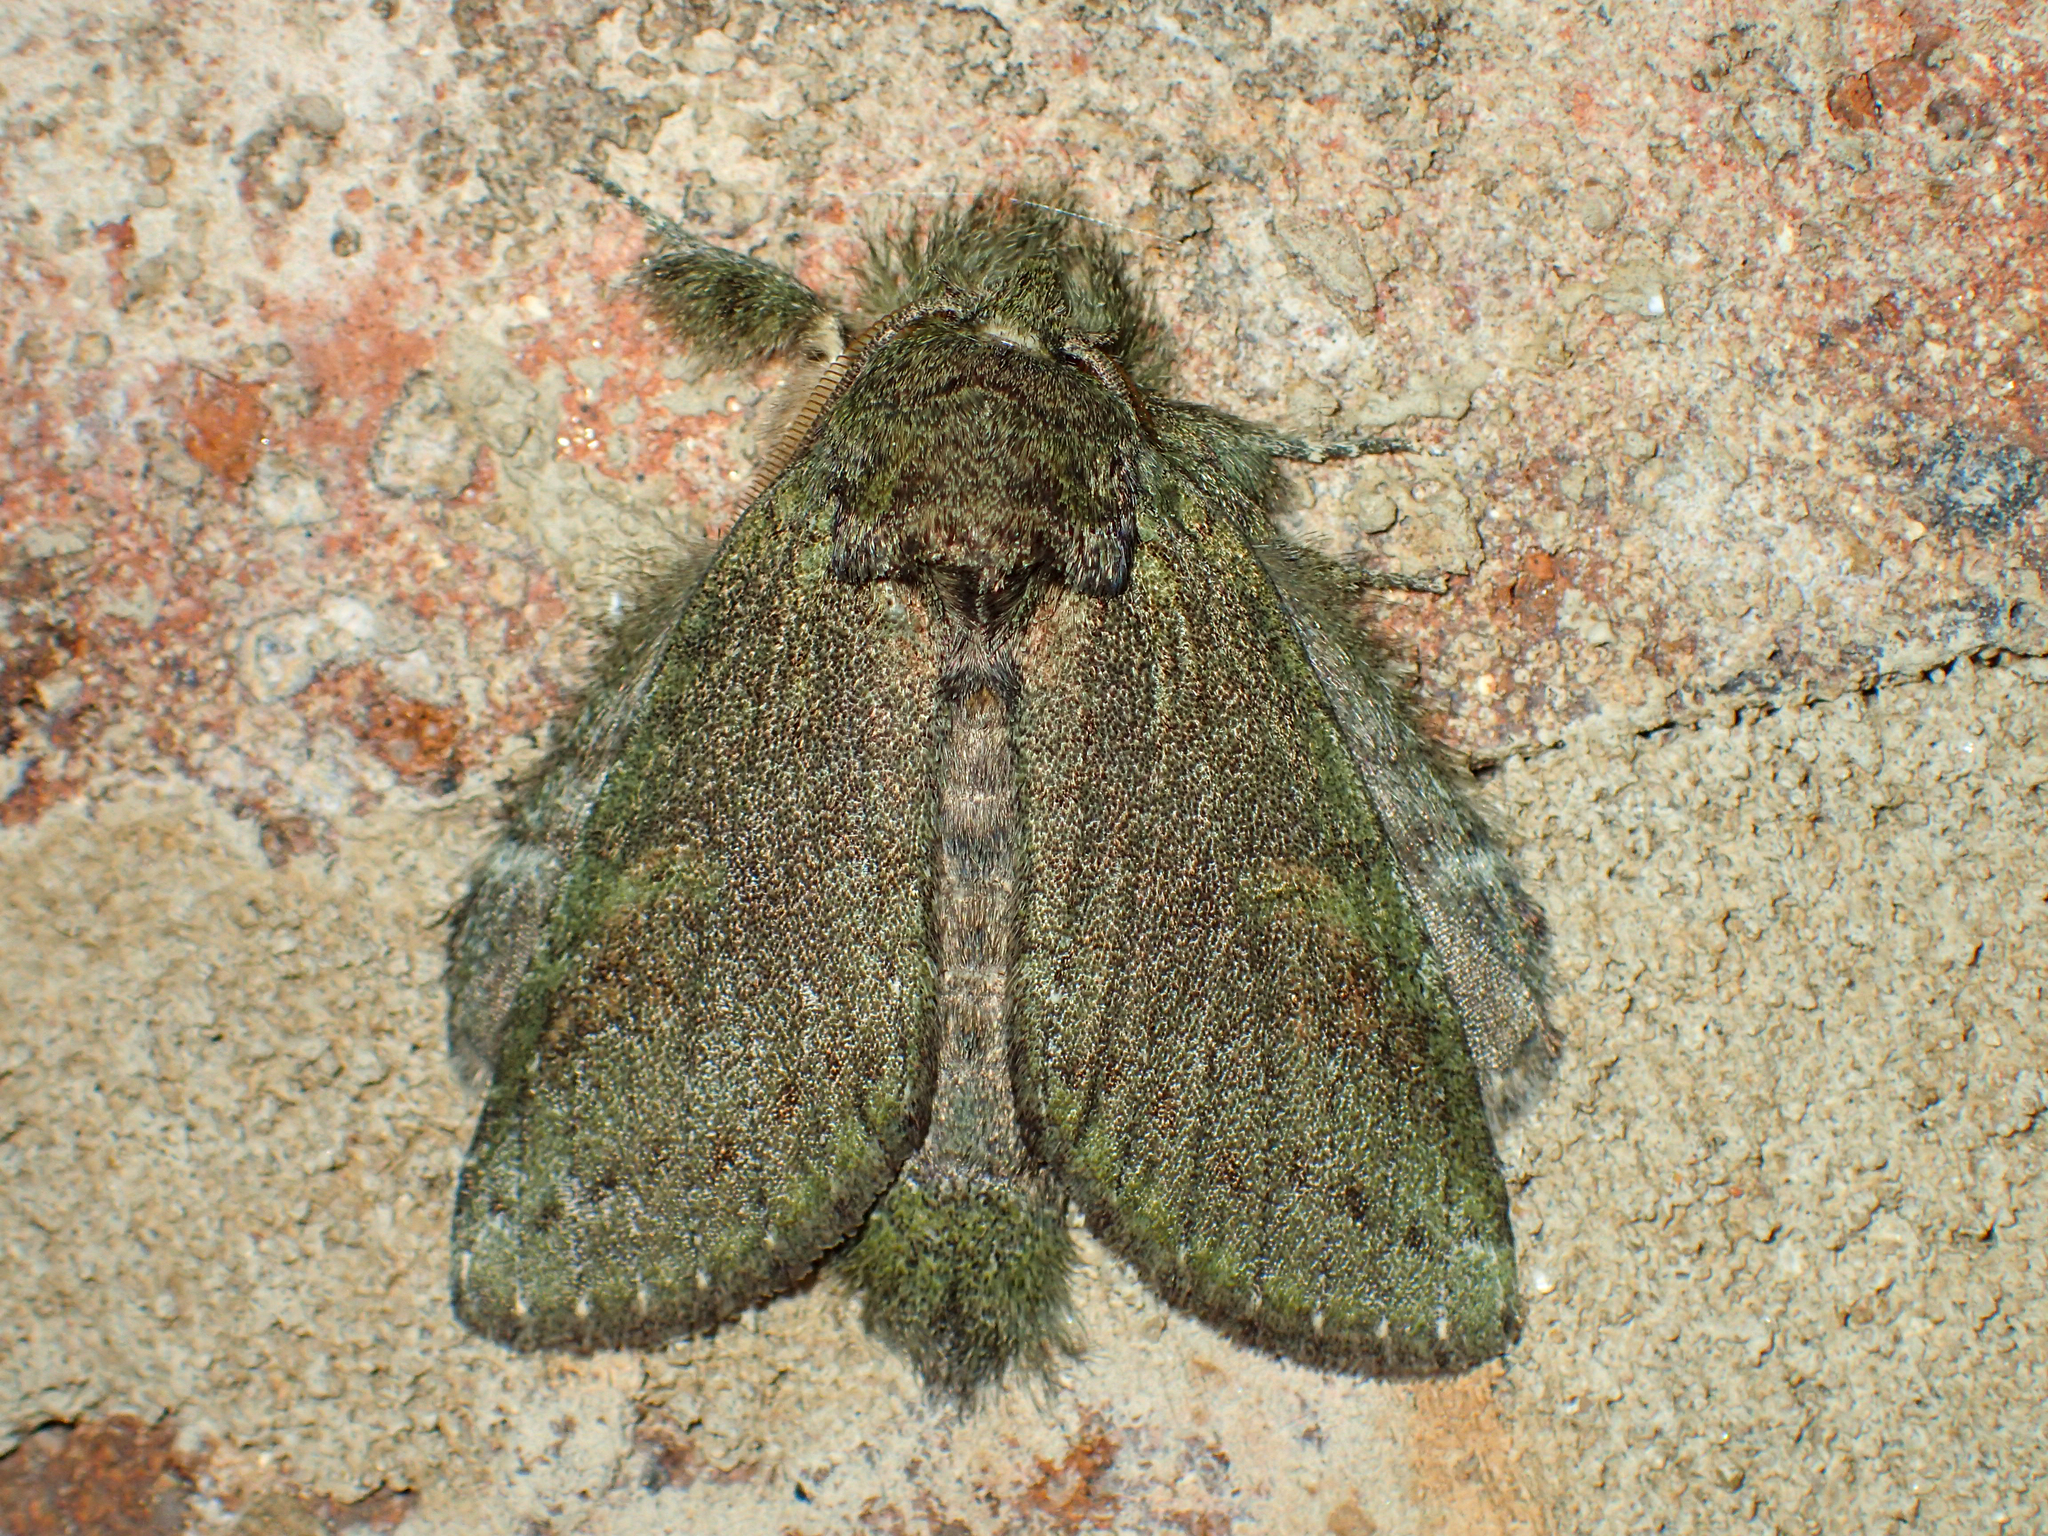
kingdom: Animalia
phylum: Arthropoda
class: Insecta
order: Lepidoptera
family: Notodontidae
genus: Disphragis
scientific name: Disphragis Cecrita guttivitta
